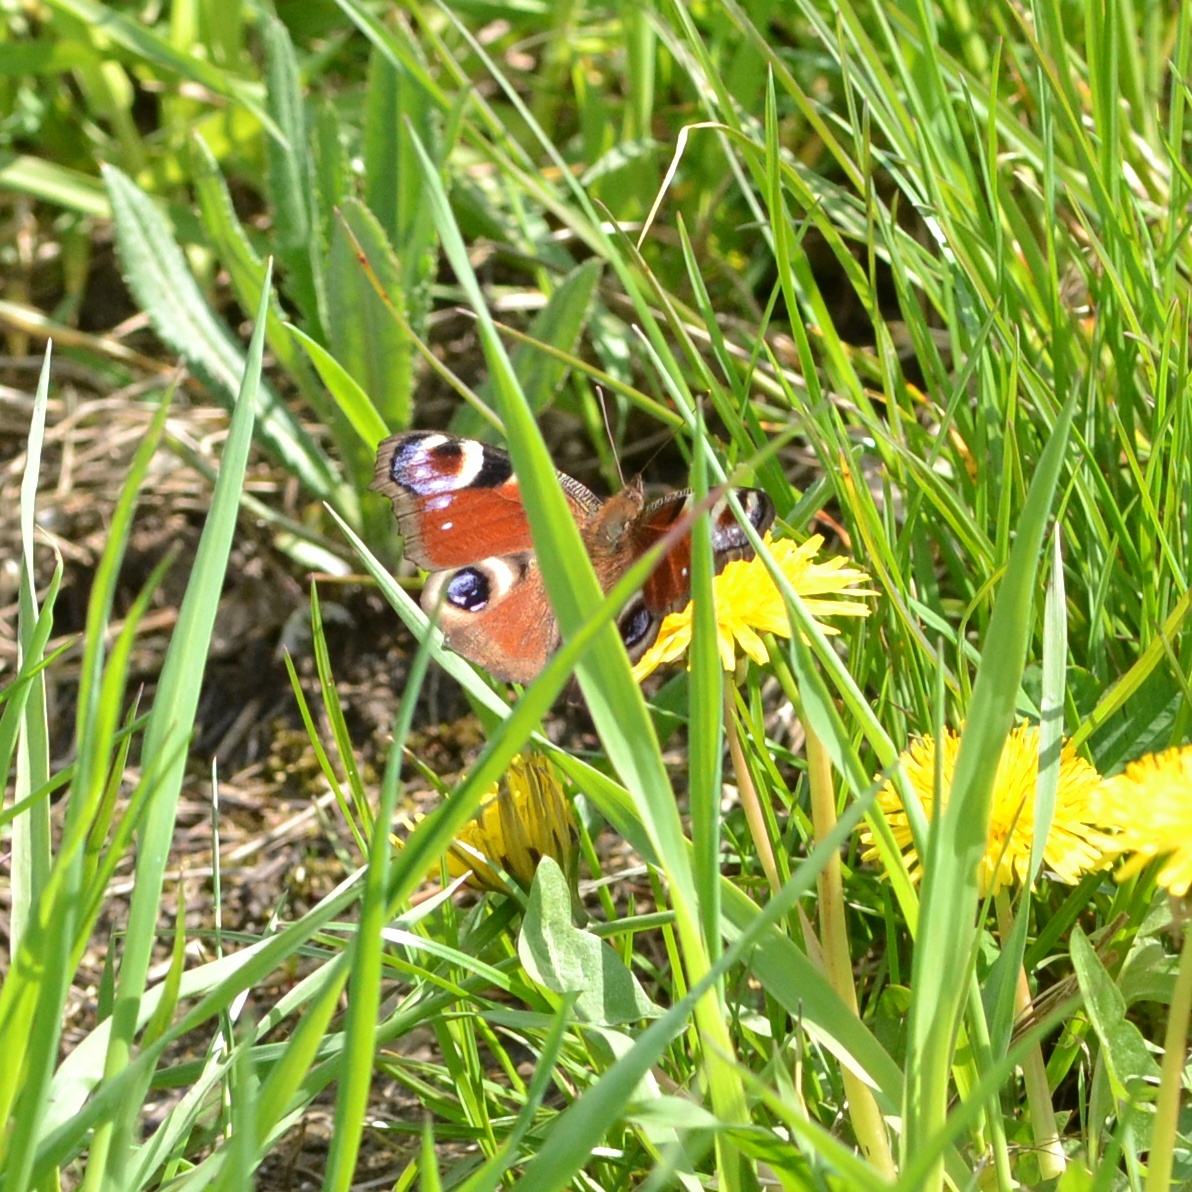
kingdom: Animalia
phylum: Arthropoda
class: Insecta
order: Lepidoptera
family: Nymphalidae
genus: Aglais
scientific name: Aglais io
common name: Peacock
